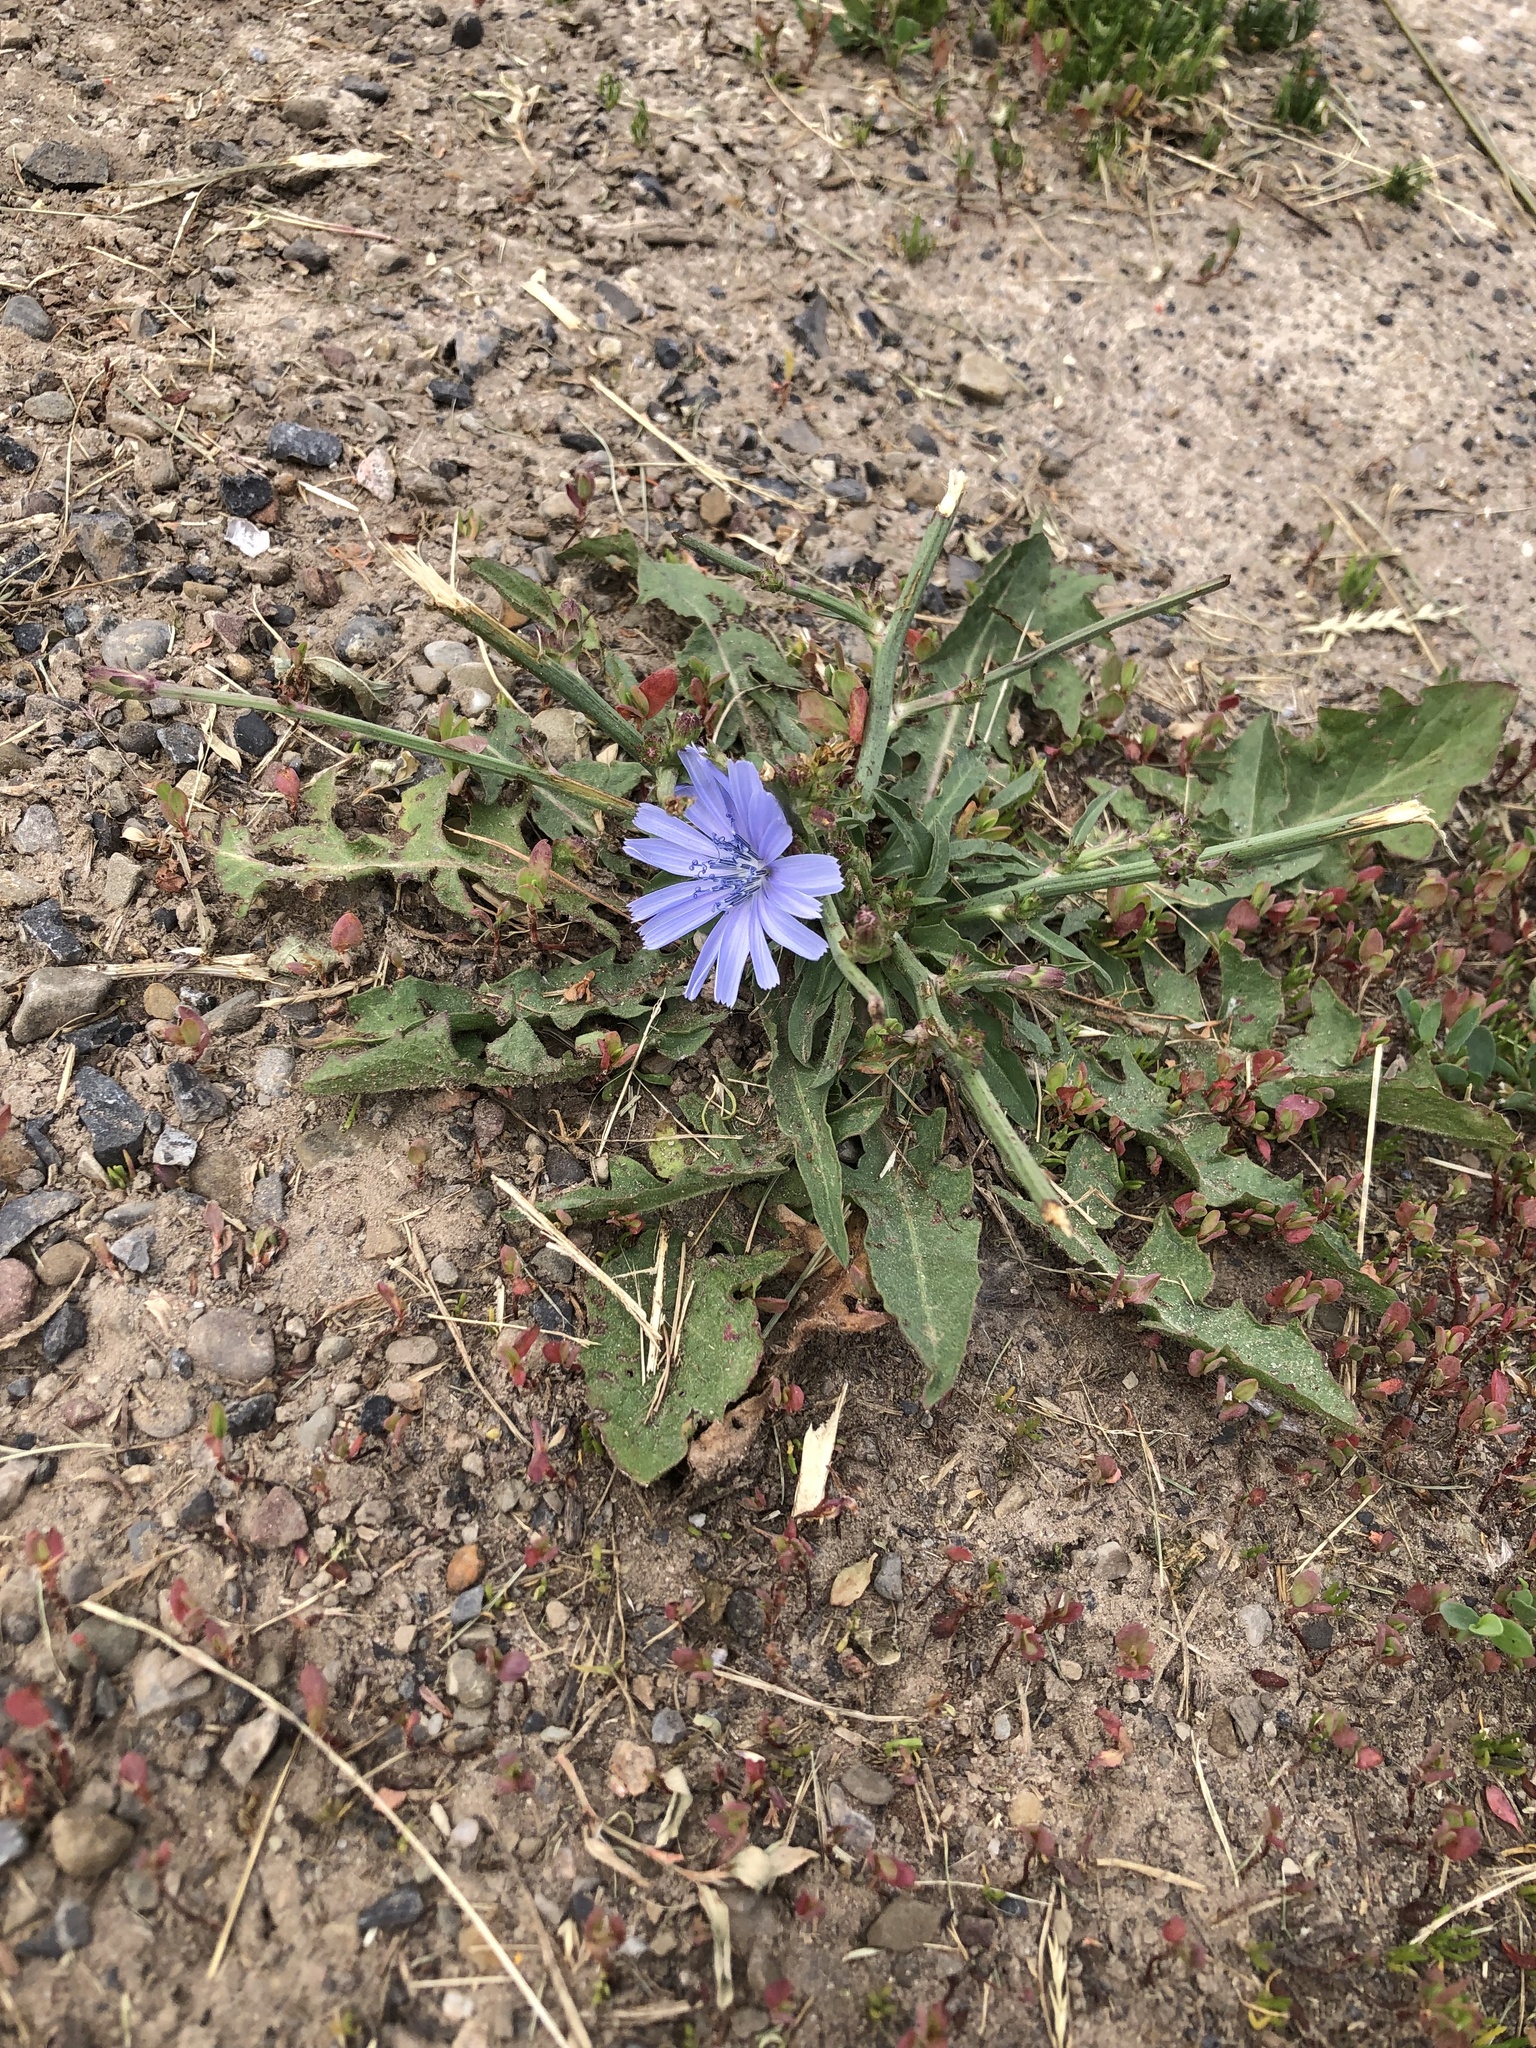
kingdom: Plantae
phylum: Tracheophyta
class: Magnoliopsida
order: Asterales
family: Asteraceae
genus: Cichorium
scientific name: Cichorium intybus
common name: Chicory
